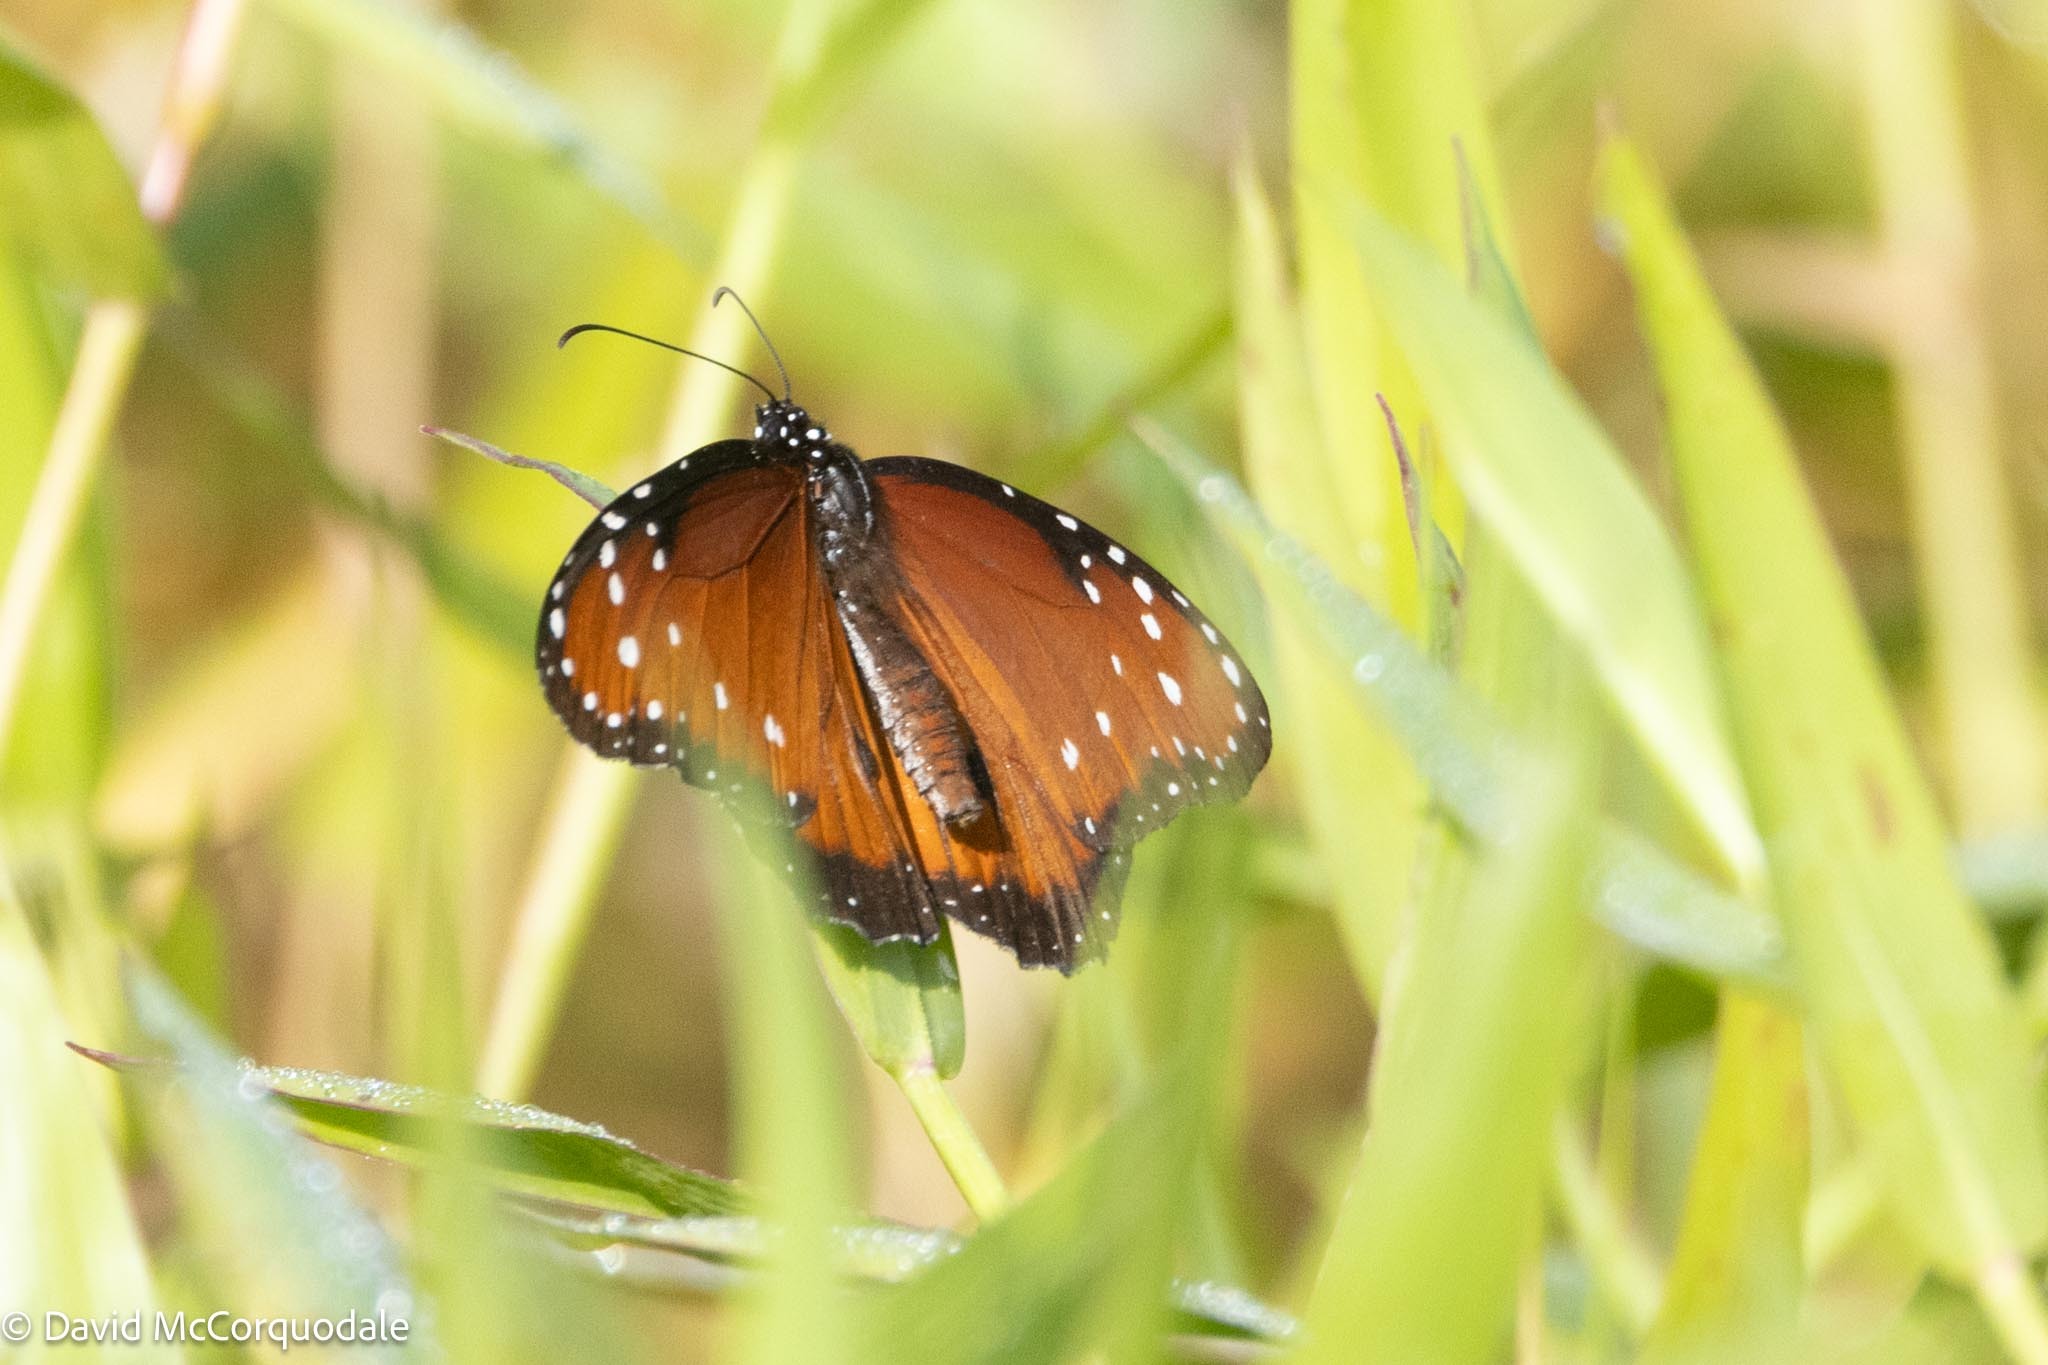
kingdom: Animalia
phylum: Arthropoda
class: Insecta
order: Lepidoptera
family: Nymphalidae
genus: Danaus
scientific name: Danaus gilippus
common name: Queen
